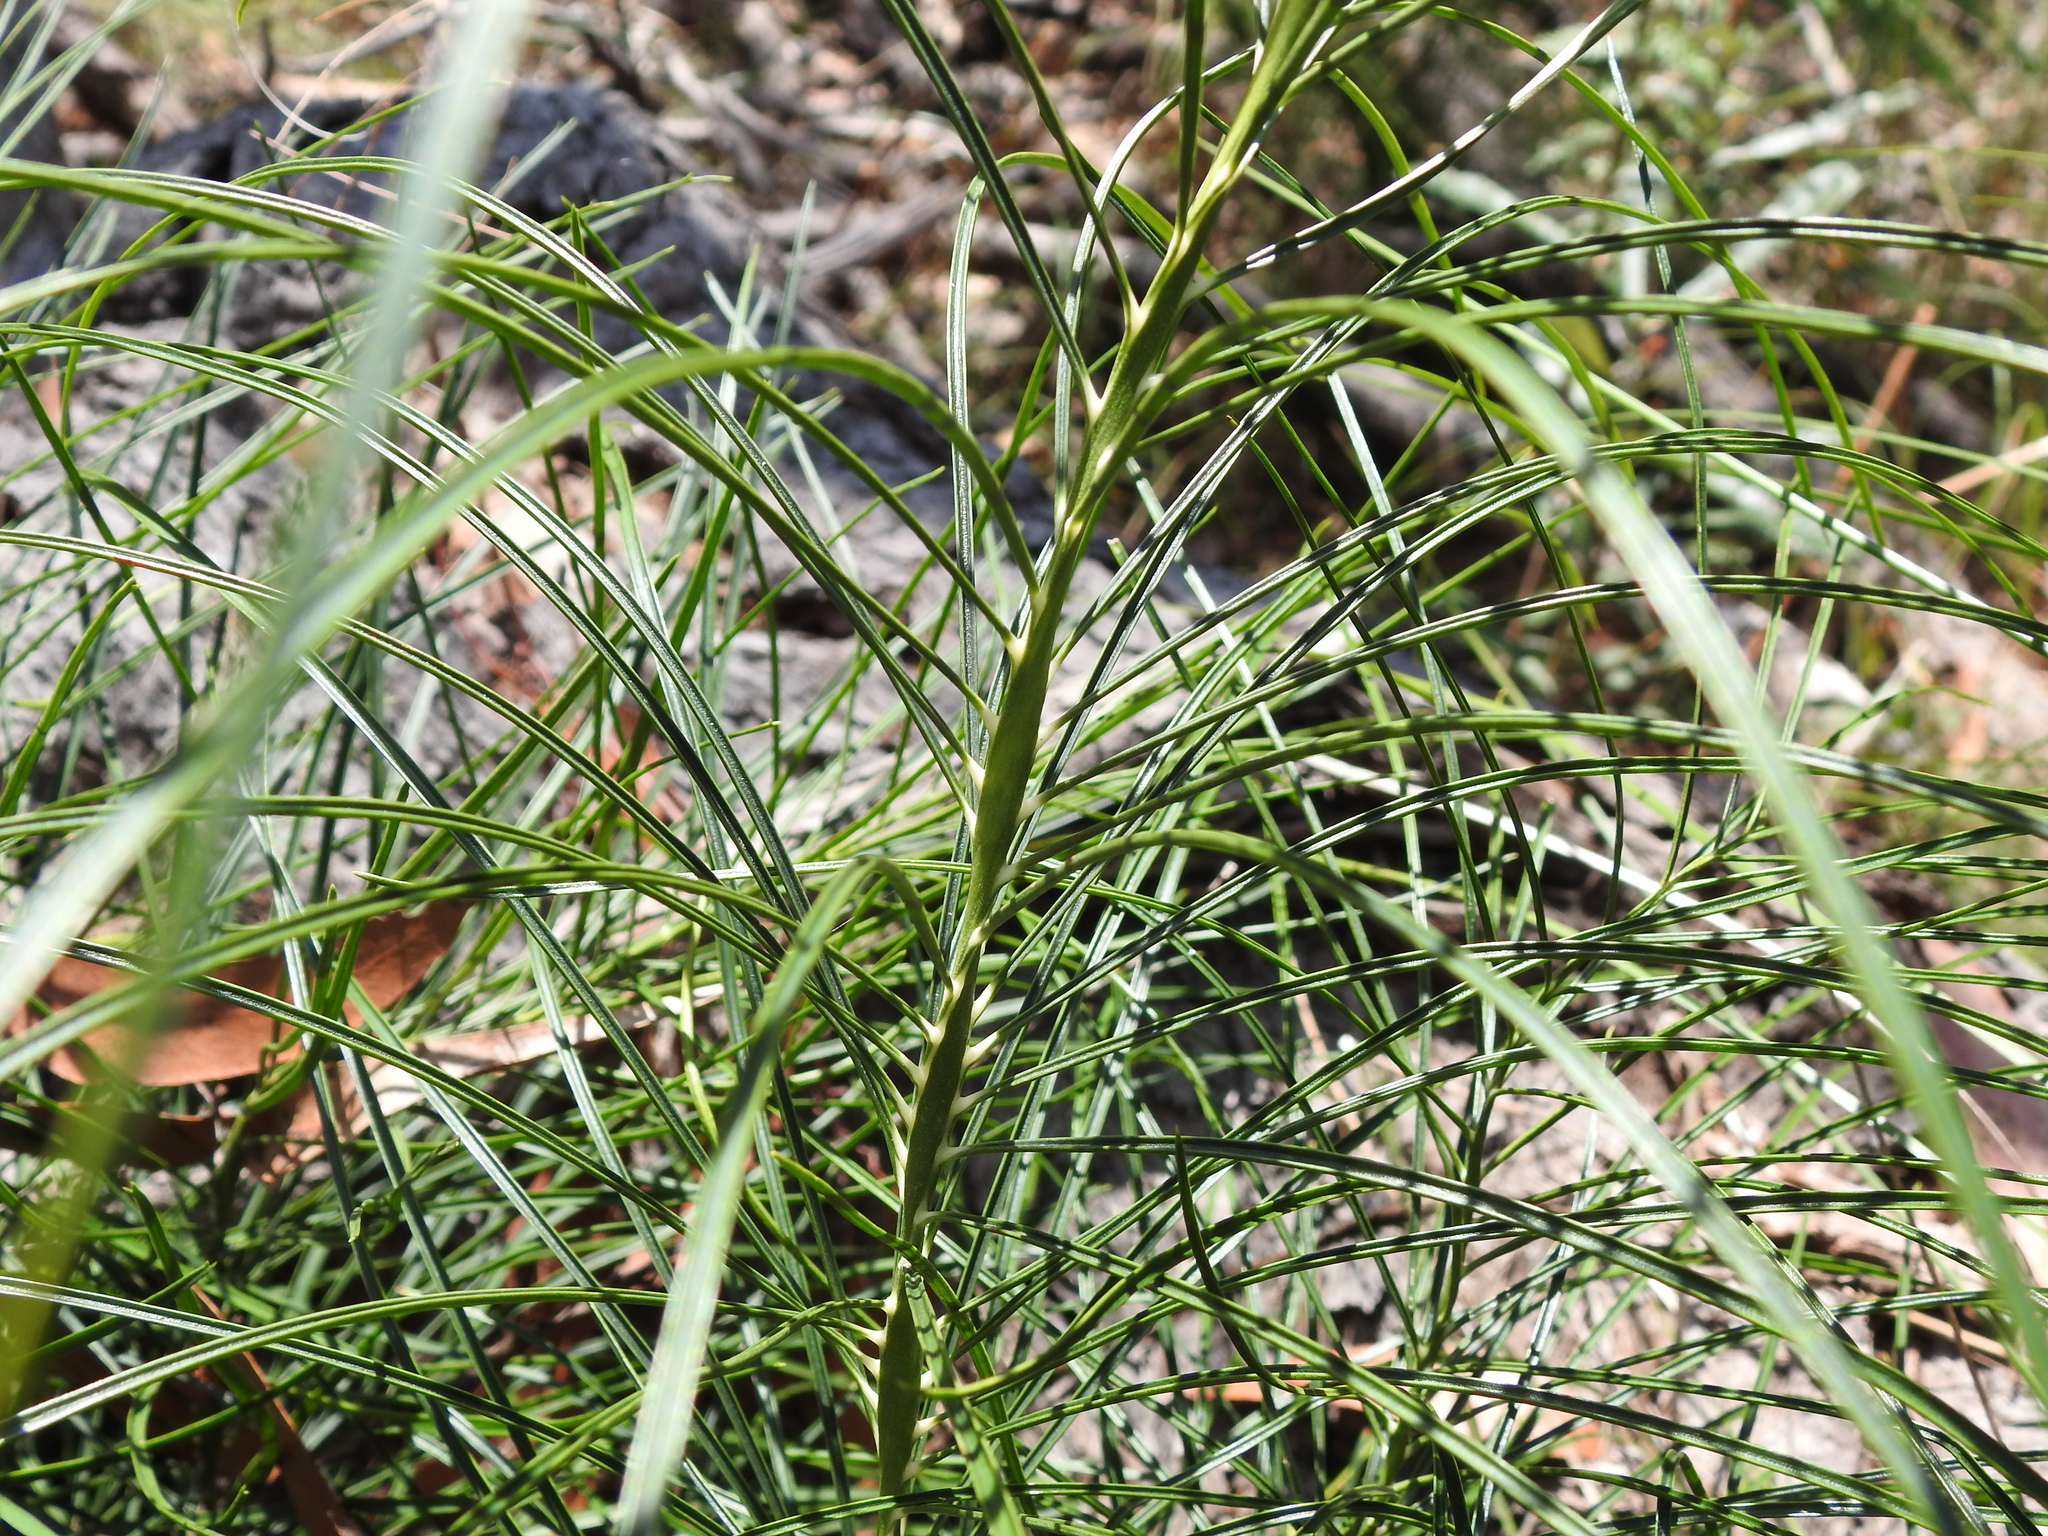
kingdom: Plantae
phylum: Tracheophyta
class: Cycadopsida
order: Cycadales
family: Zamiaceae
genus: Macrozamia
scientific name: Macrozamia pauli-guilielmi
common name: Pineapple zamia
